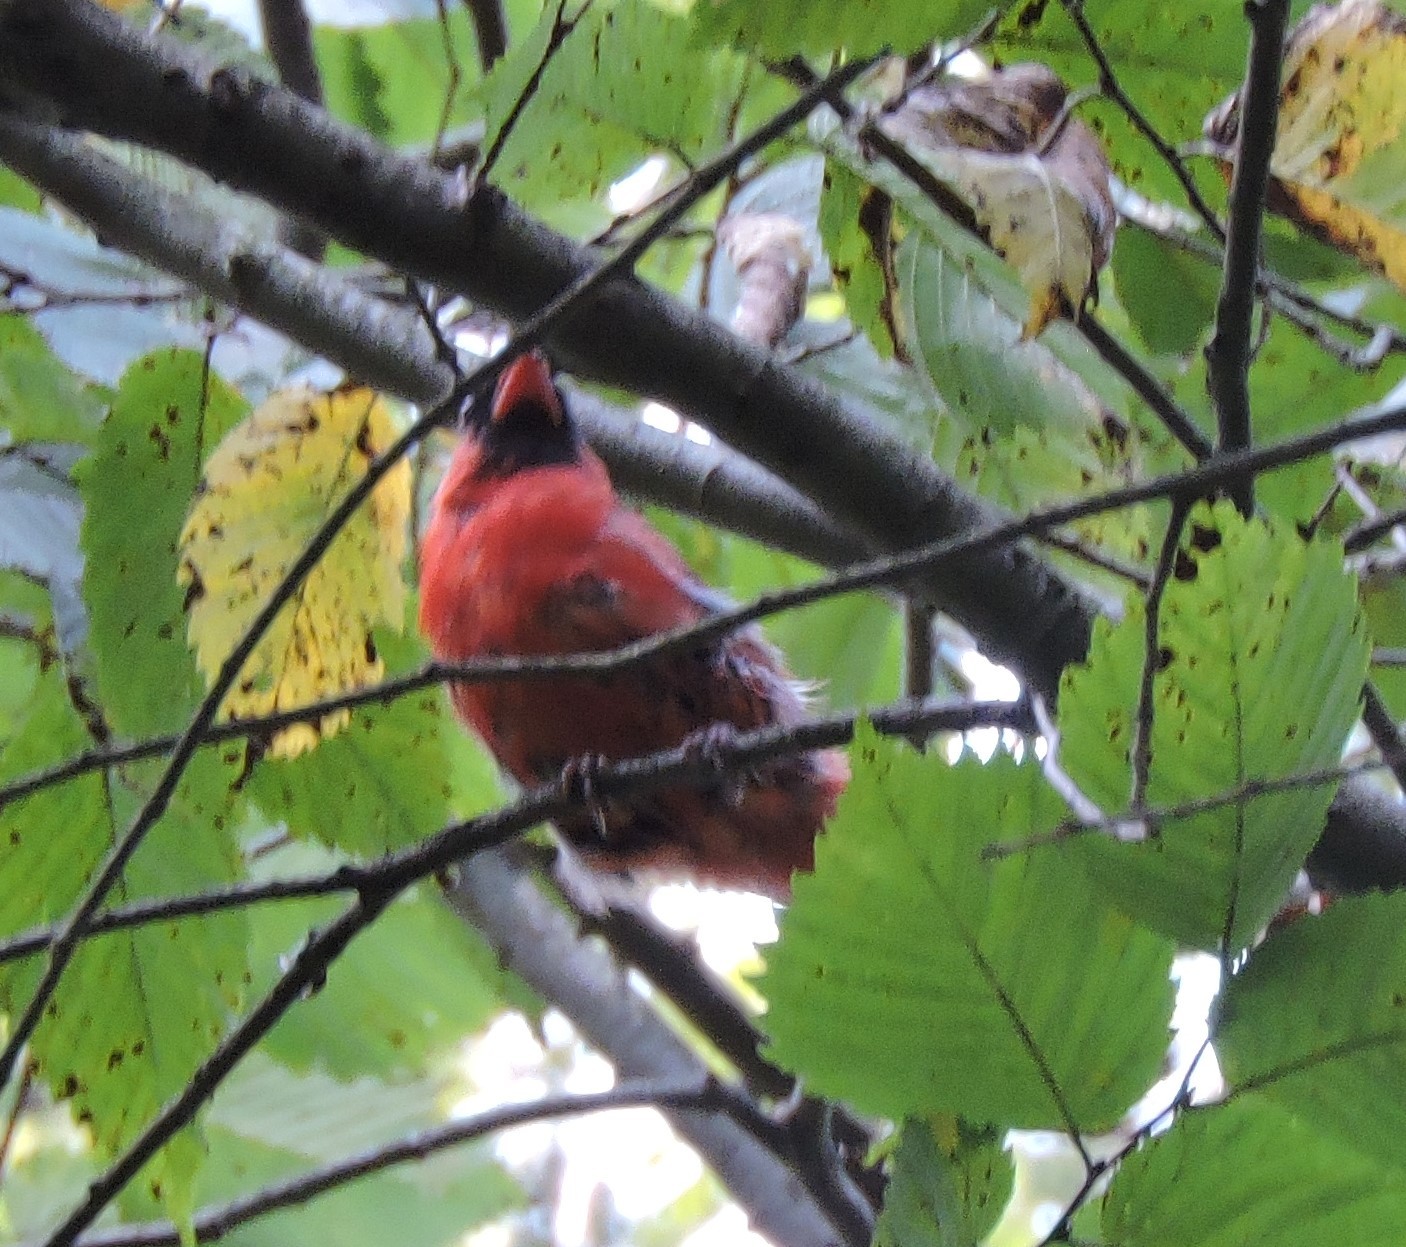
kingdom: Animalia
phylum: Chordata
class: Aves
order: Passeriformes
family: Cardinalidae
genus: Cardinalis
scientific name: Cardinalis cardinalis
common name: Northern cardinal
